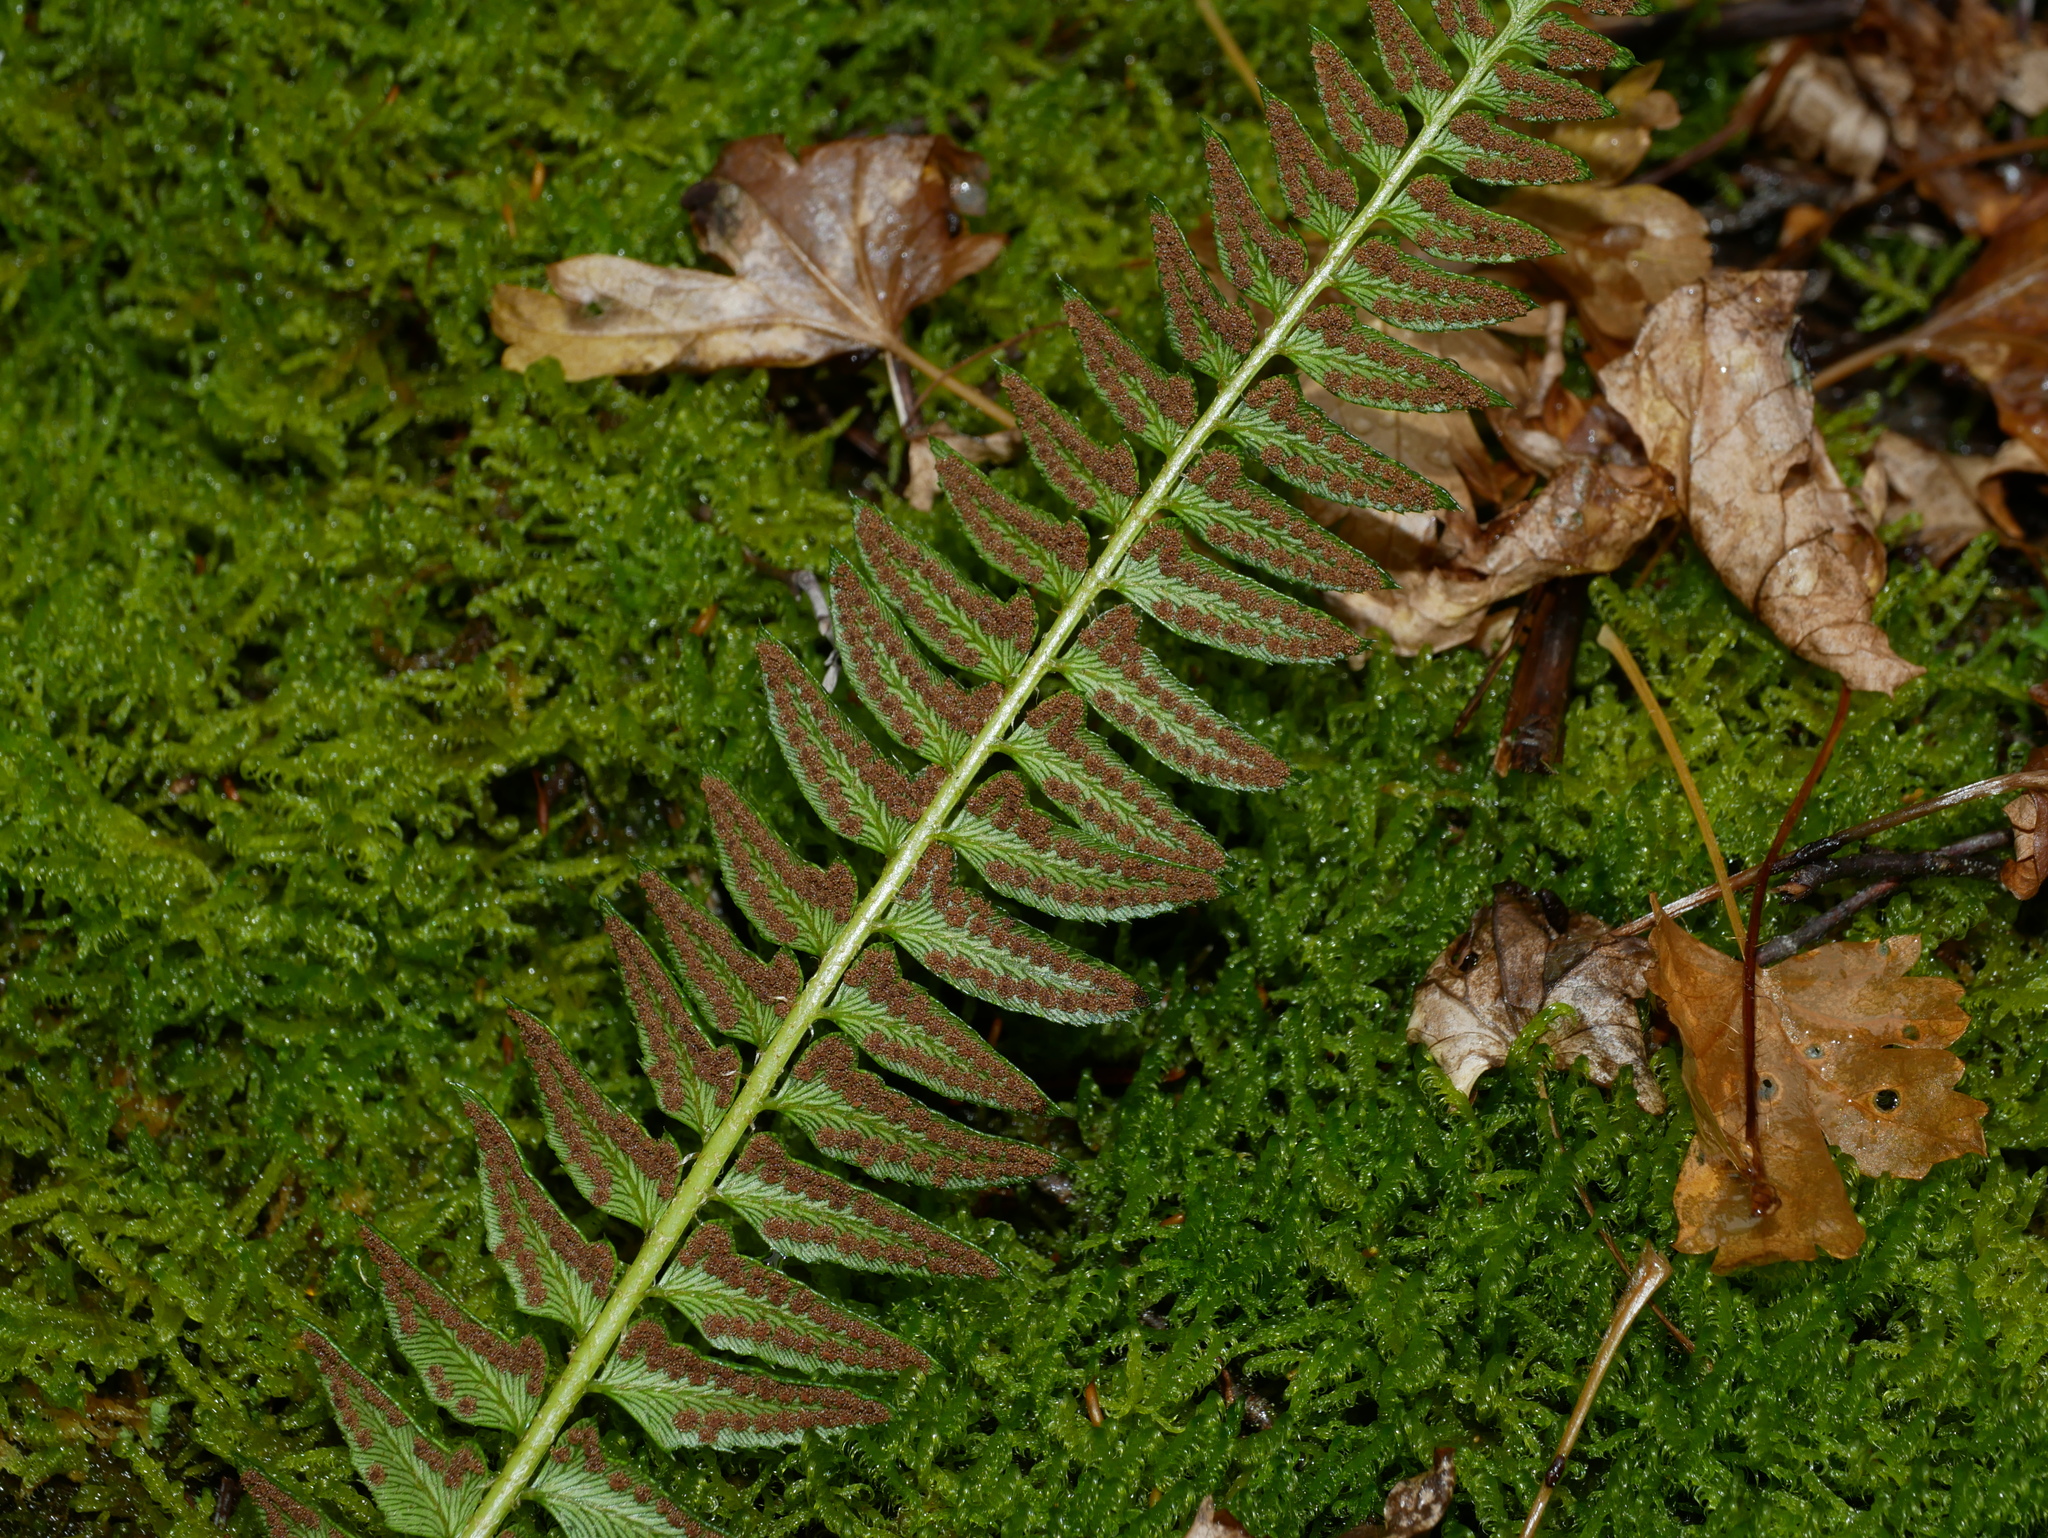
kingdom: Plantae
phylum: Tracheophyta
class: Polypodiopsida
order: Polypodiales
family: Dryopteridaceae
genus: Polystichum
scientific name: Polystichum lonchitis
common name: Holly fern
